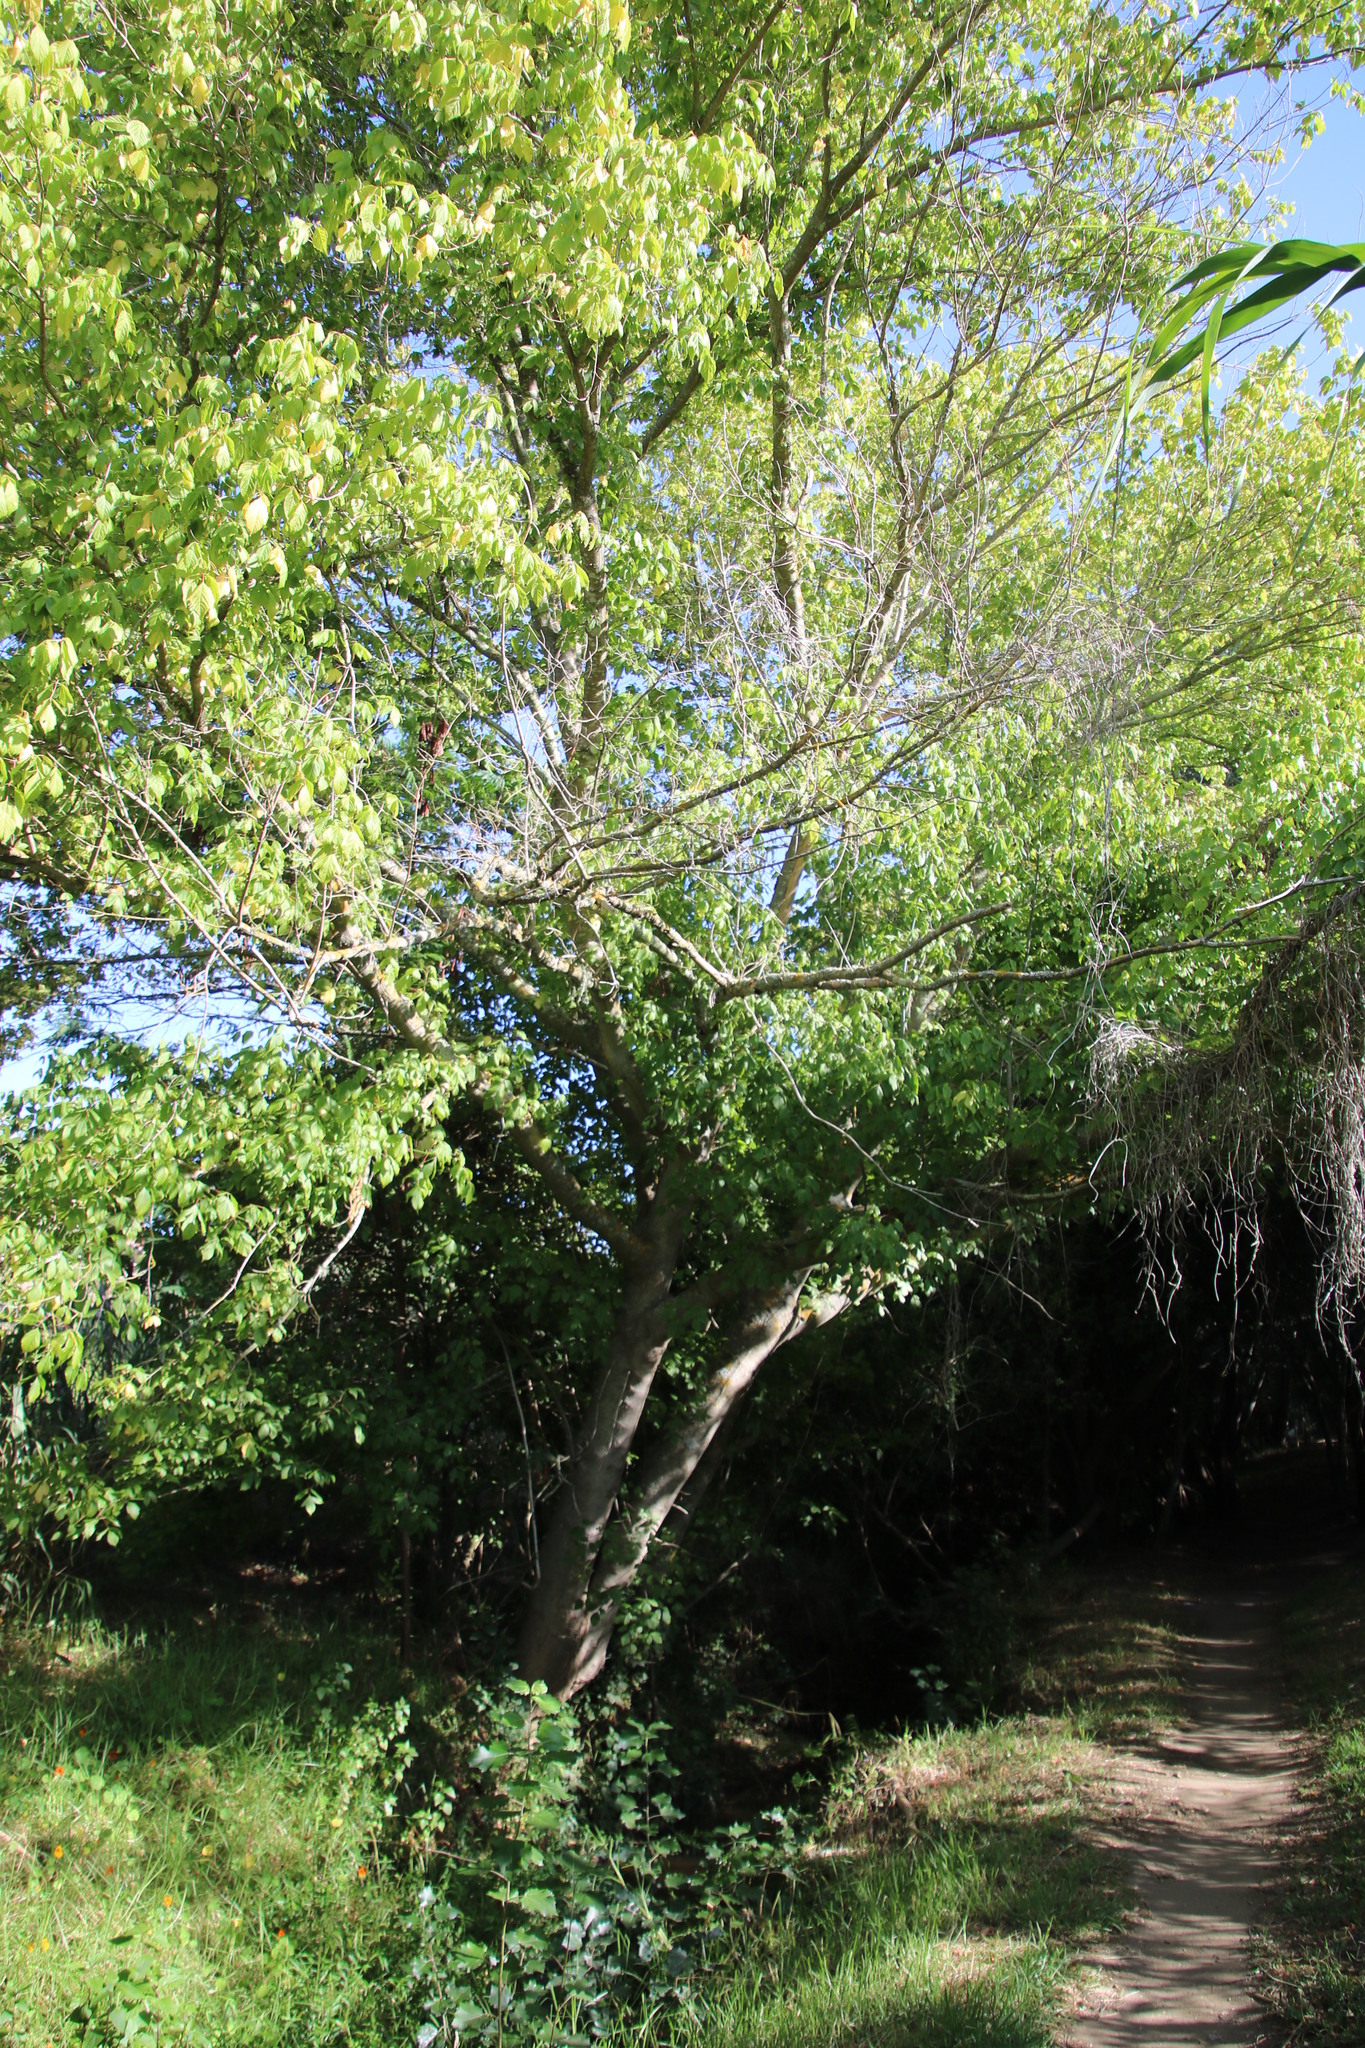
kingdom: Plantae
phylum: Tracheophyta
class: Magnoliopsida
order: Sapindales
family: Sapindaceae
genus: Acer
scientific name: Acer negundo
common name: Ashleaf maple
